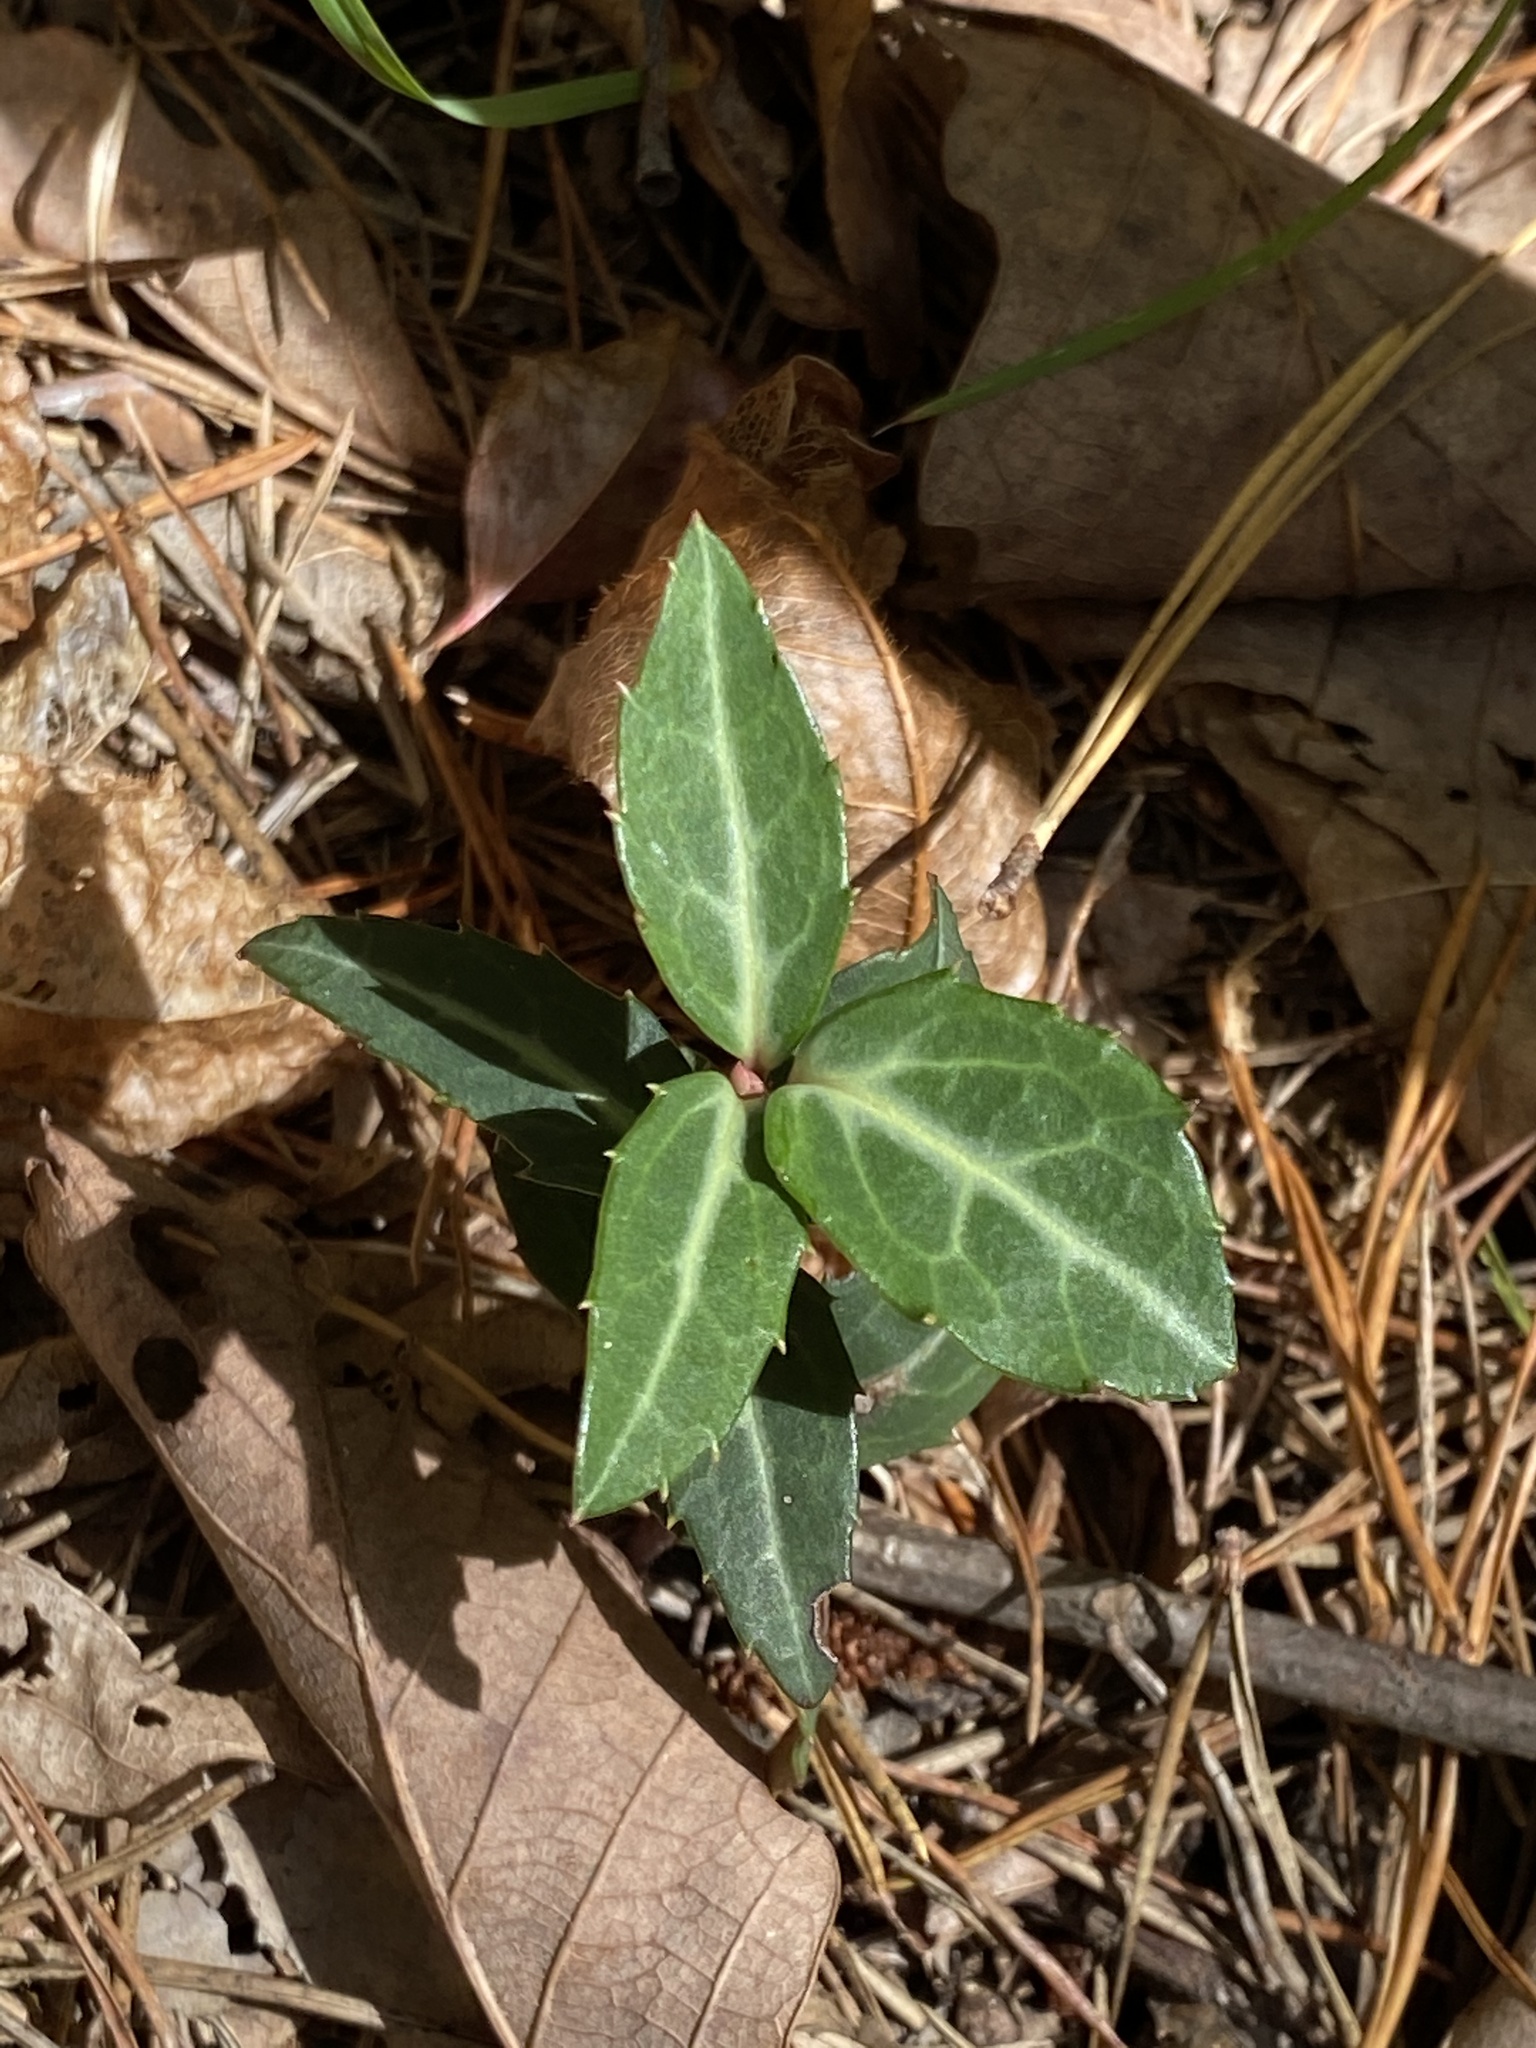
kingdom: Plantae
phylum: Tracheophyta
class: Magnoliopsida
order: Ericales
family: Ericaceae
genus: Chimaphila
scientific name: Chimaphila maculata
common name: Spotted pipsissewa
